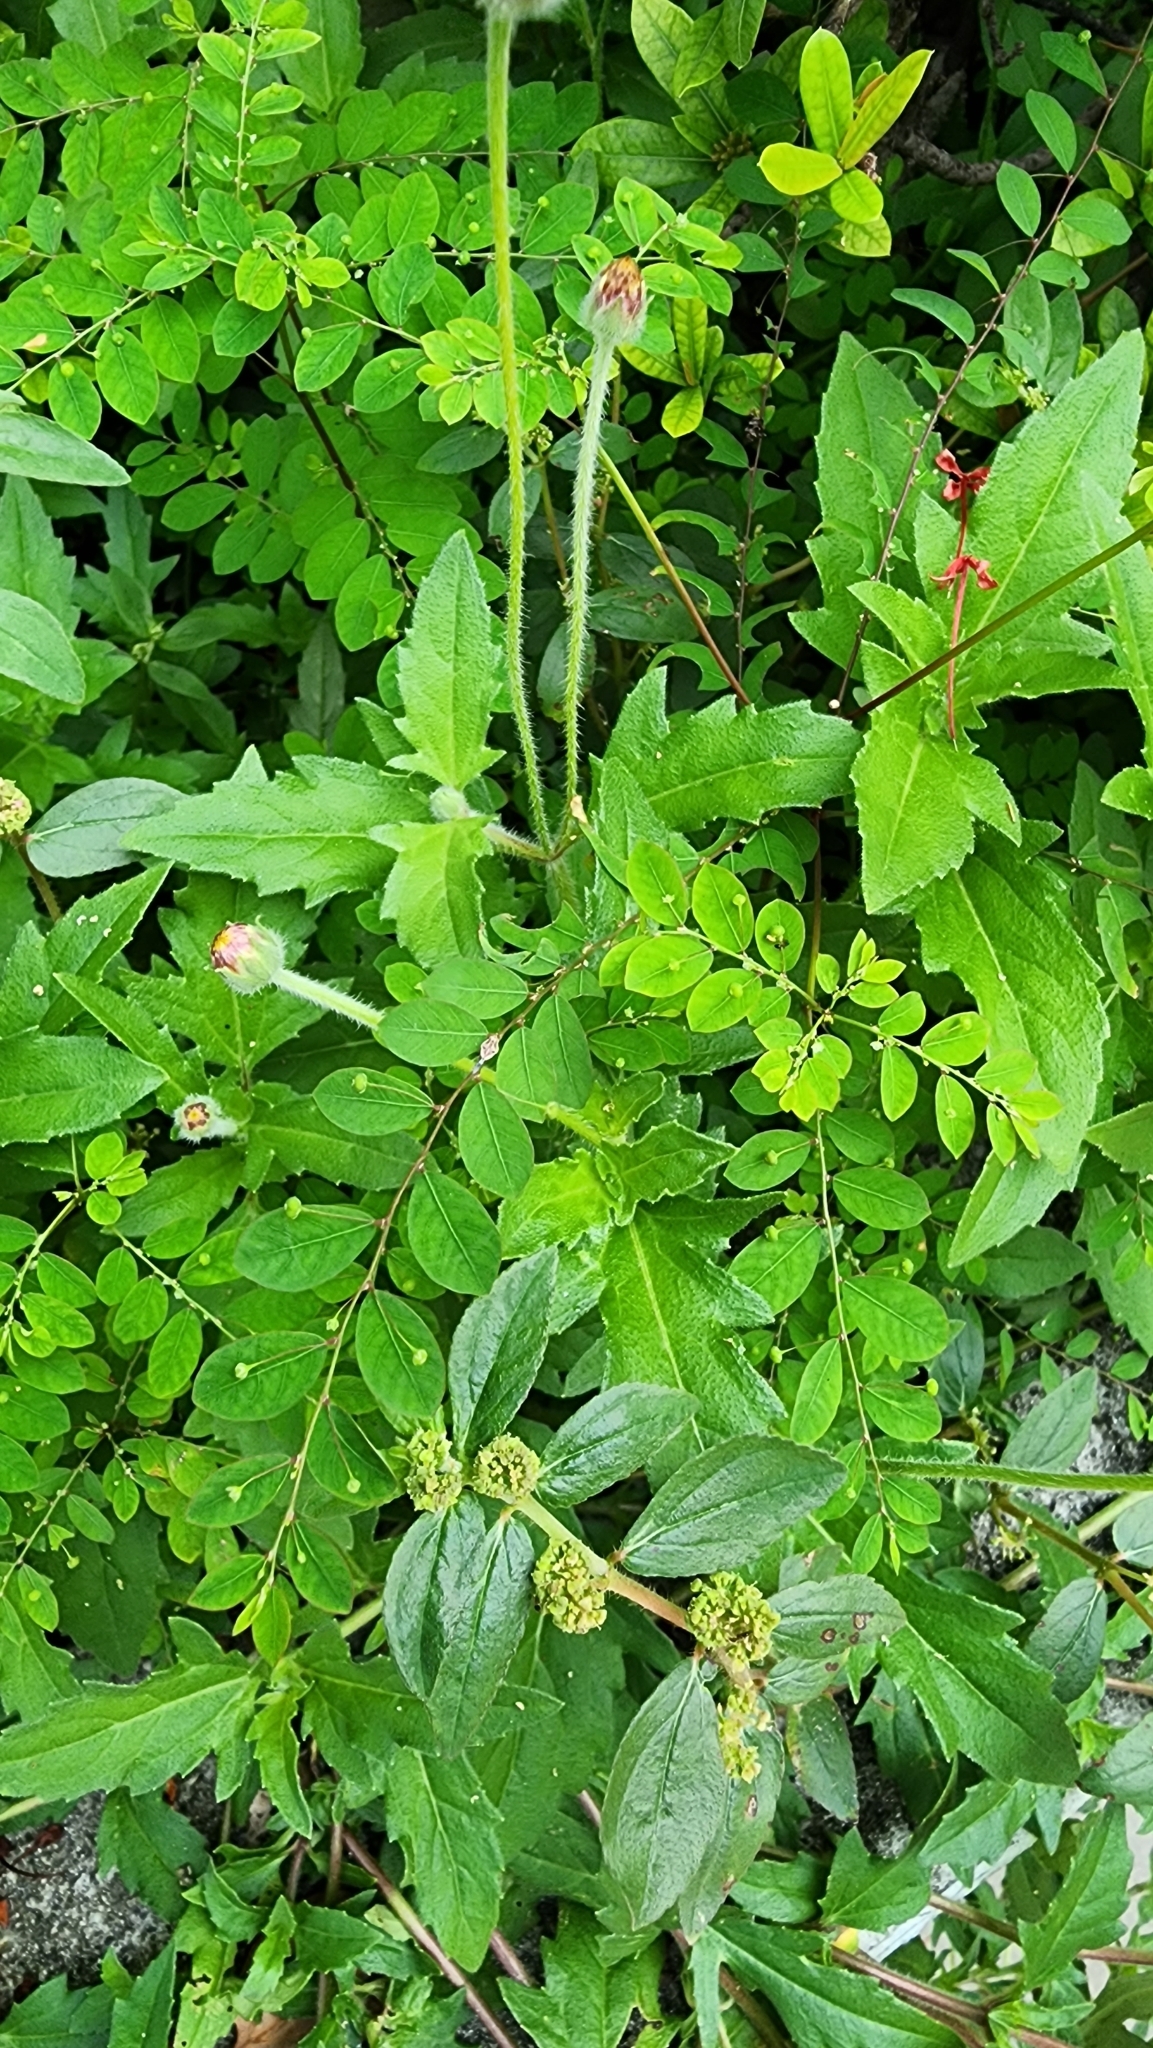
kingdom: Plantae
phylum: Tracheophyta
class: Magnoliopsida
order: Asterales
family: Asteraceae
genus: Tridax
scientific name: Tridax procumbens
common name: Coatbuttons
